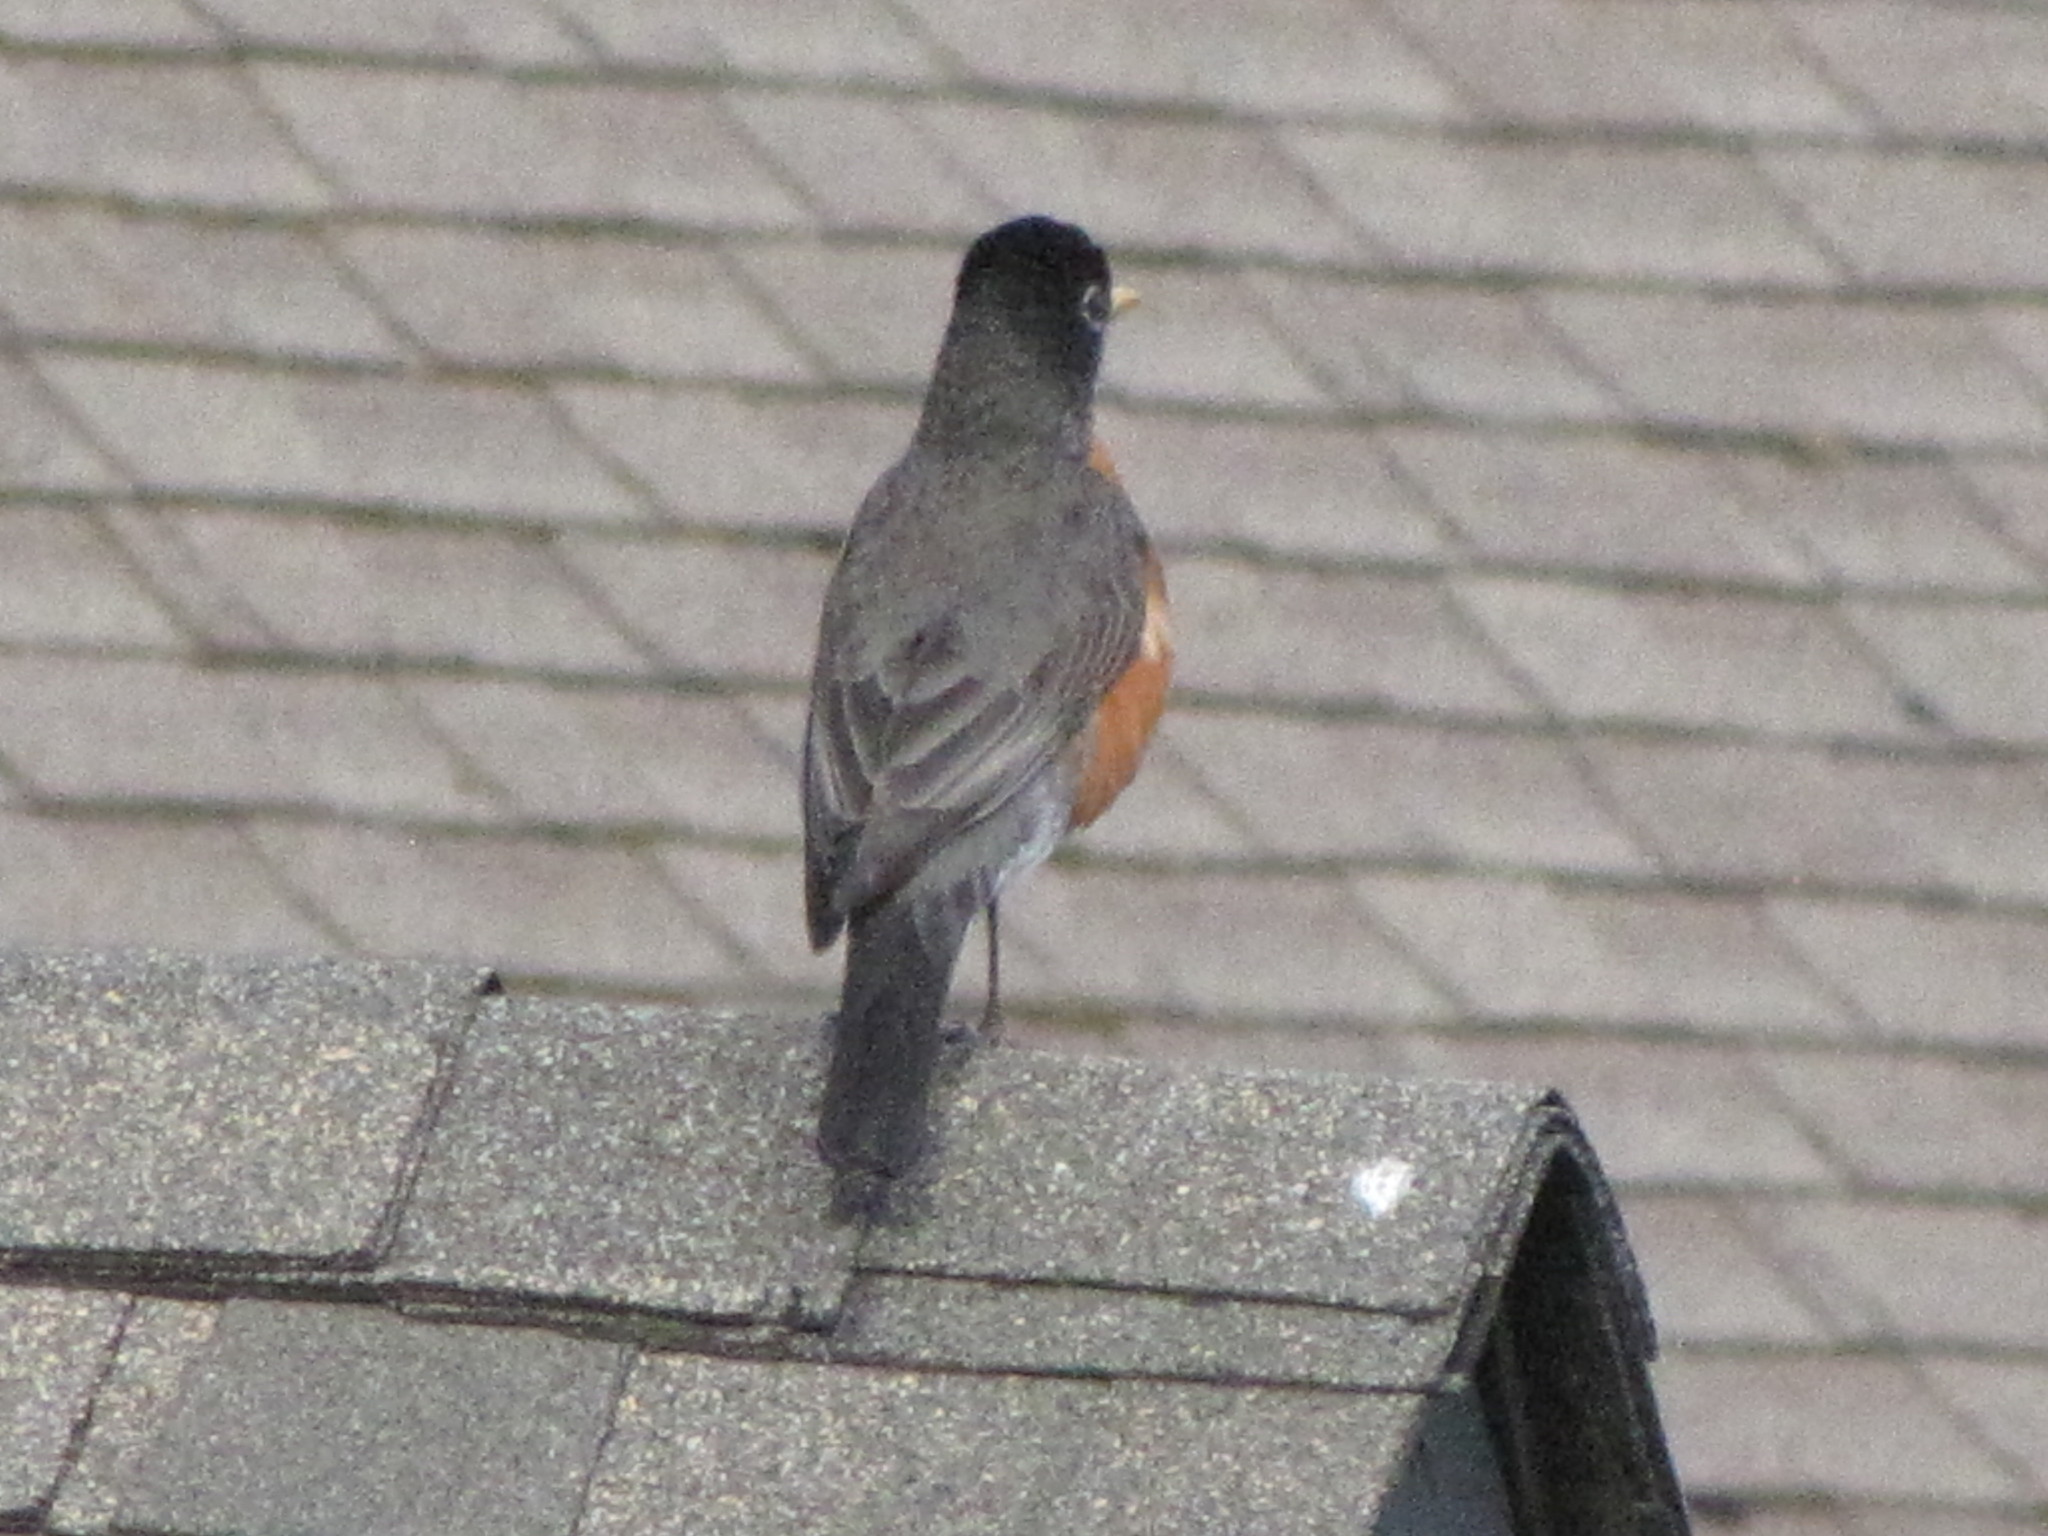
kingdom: Animalia
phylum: Chordata
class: Aves
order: Passeriformes
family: Turdidae
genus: Turdus
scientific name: Turdus migratorius
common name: American robin
